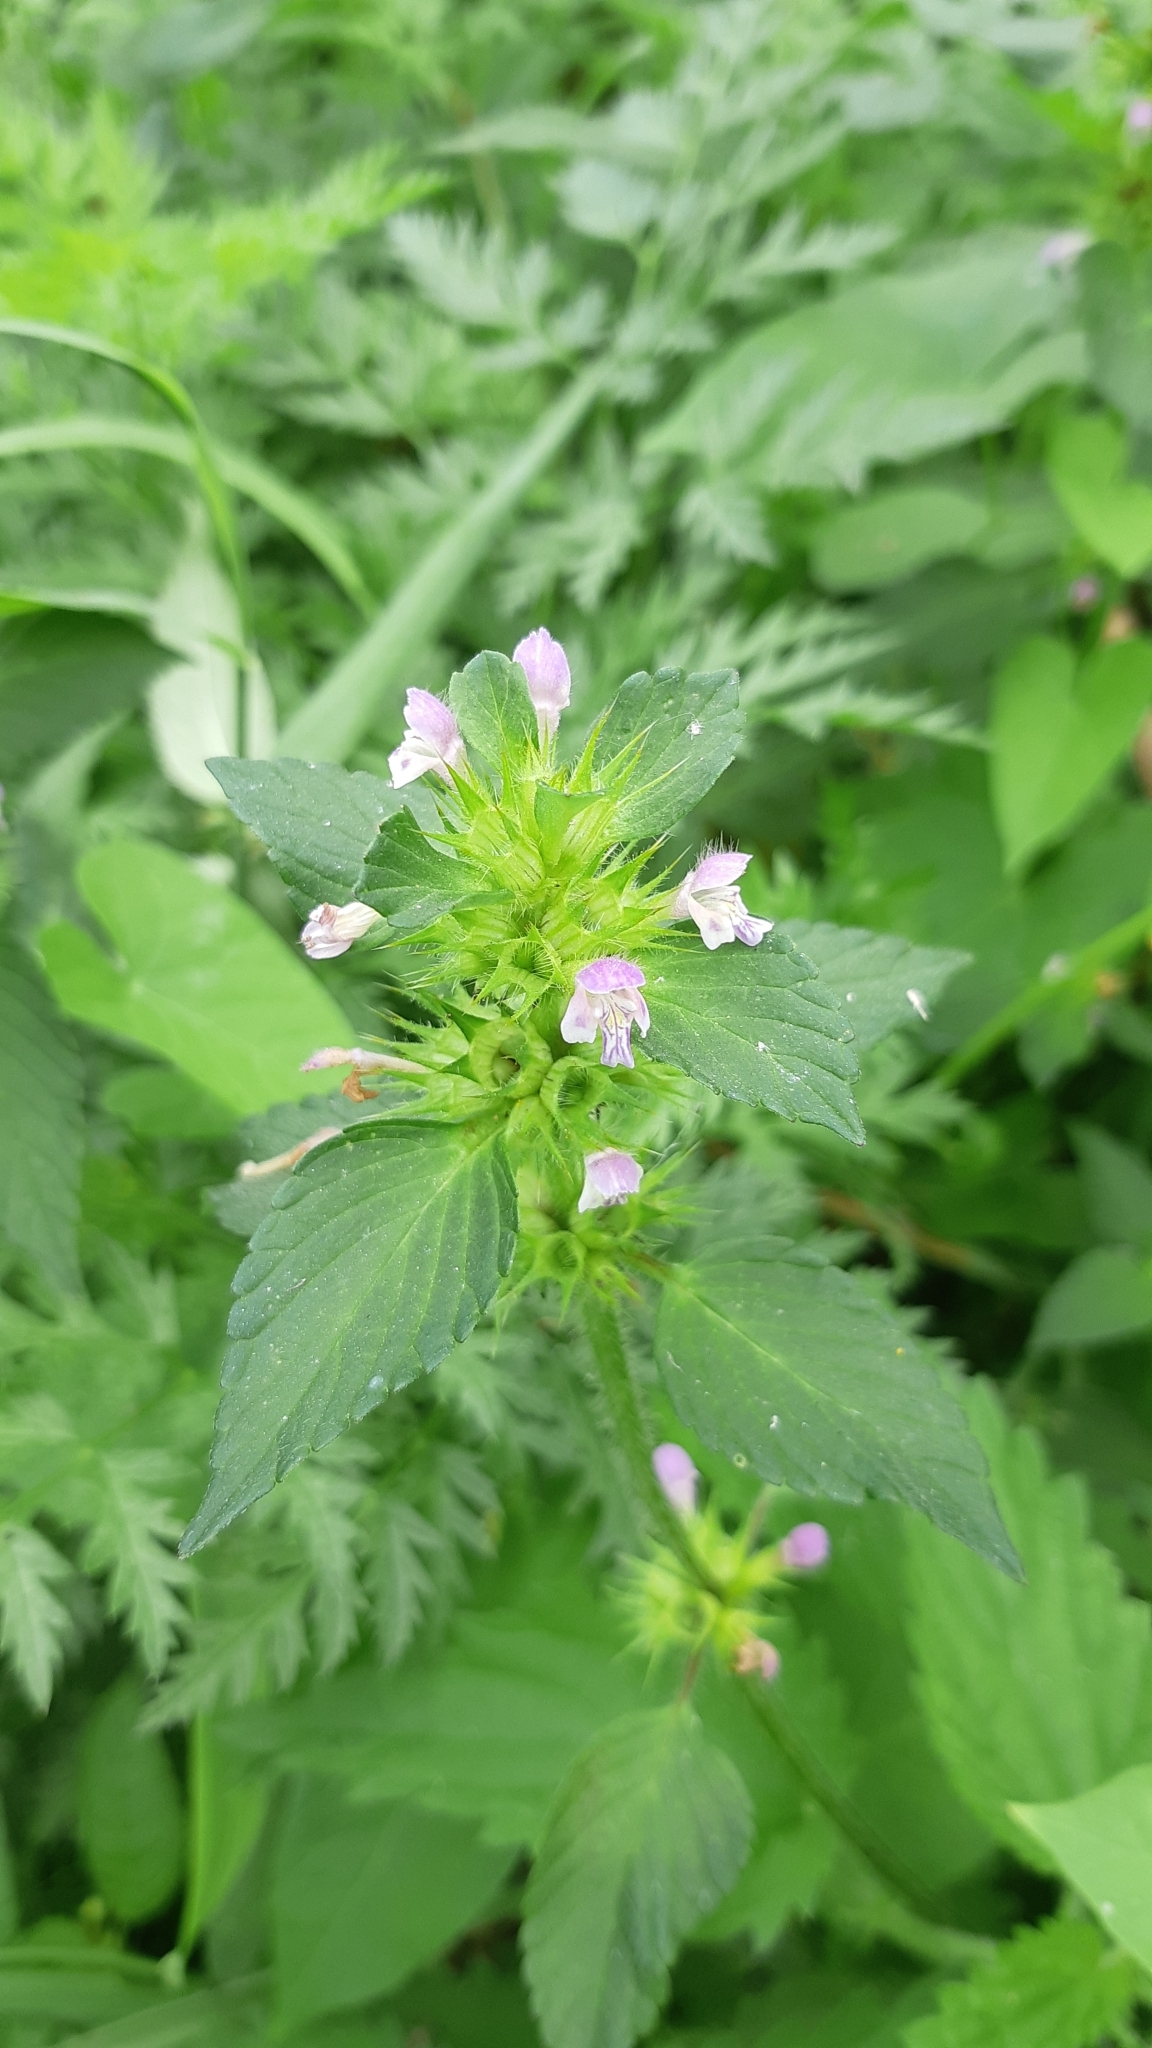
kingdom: Plantae
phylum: Tracheophyta
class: Magnoliopsida
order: Lamiales
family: Lamiaceae
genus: Galeopsis
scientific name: Galeopsis bifida
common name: Bifid hemp-nettle
